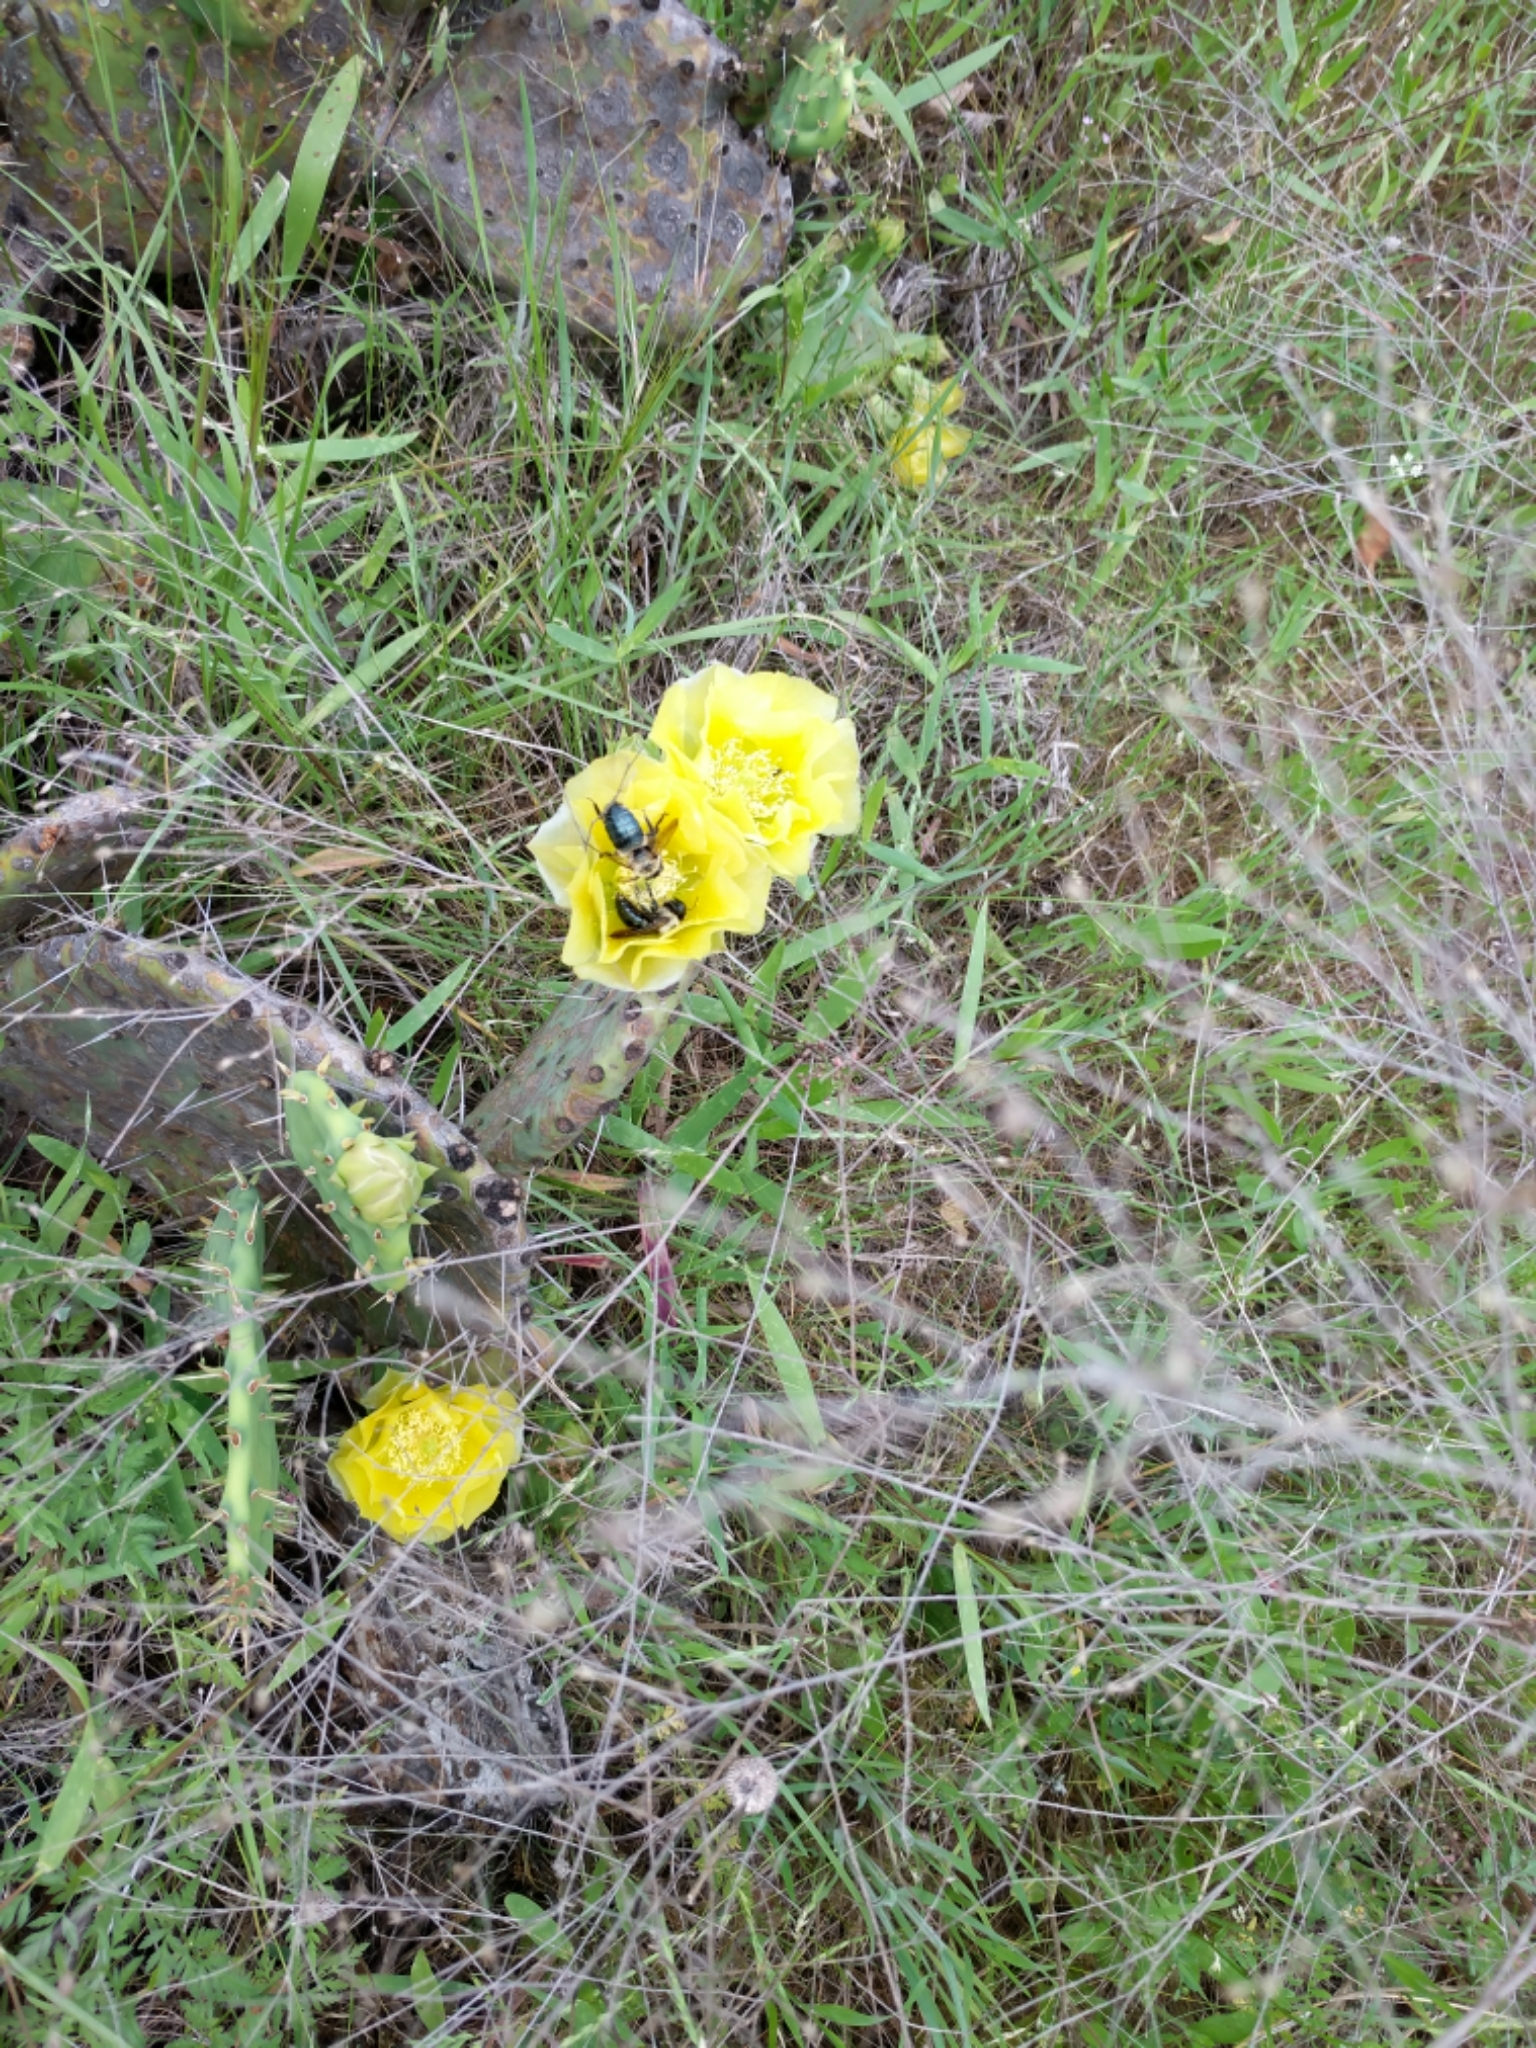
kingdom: Animalia
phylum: Arthropoda
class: Insecta
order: Hymenoptera
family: Apidae
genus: Xylocopa
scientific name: Xylocopa virginica
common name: Carpenter bee
